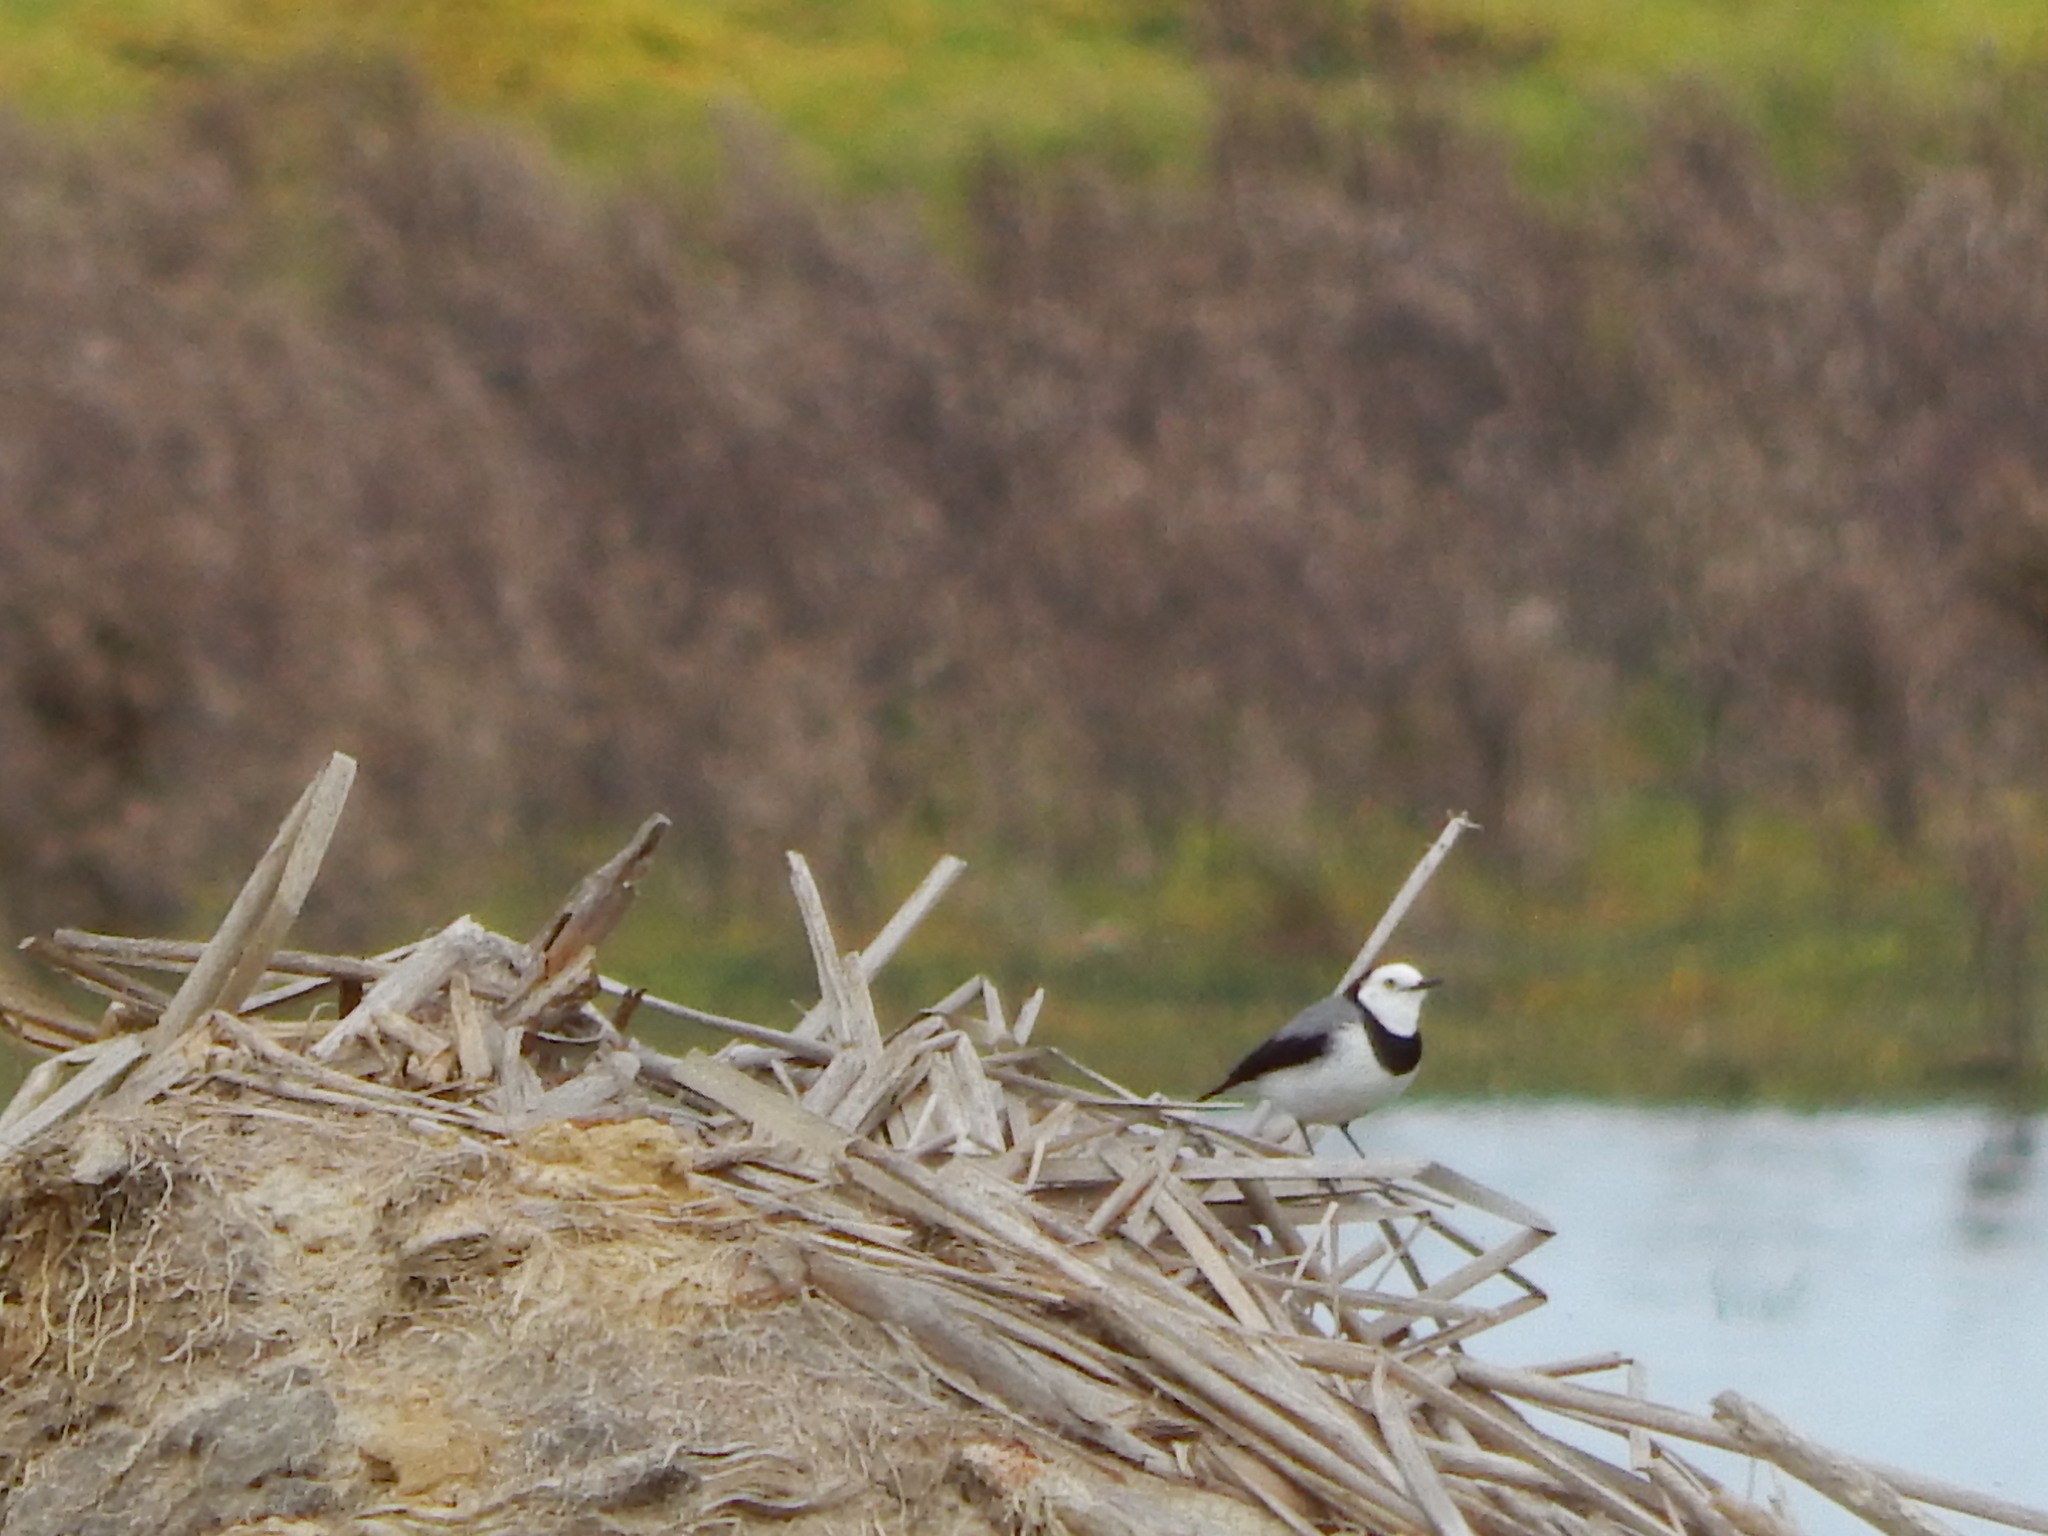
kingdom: Animalia
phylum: Chordata
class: Aves
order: Passeriformes
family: Meliphagidae
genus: Epthianura
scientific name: Epthianura albifrons
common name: White-fronted chat
